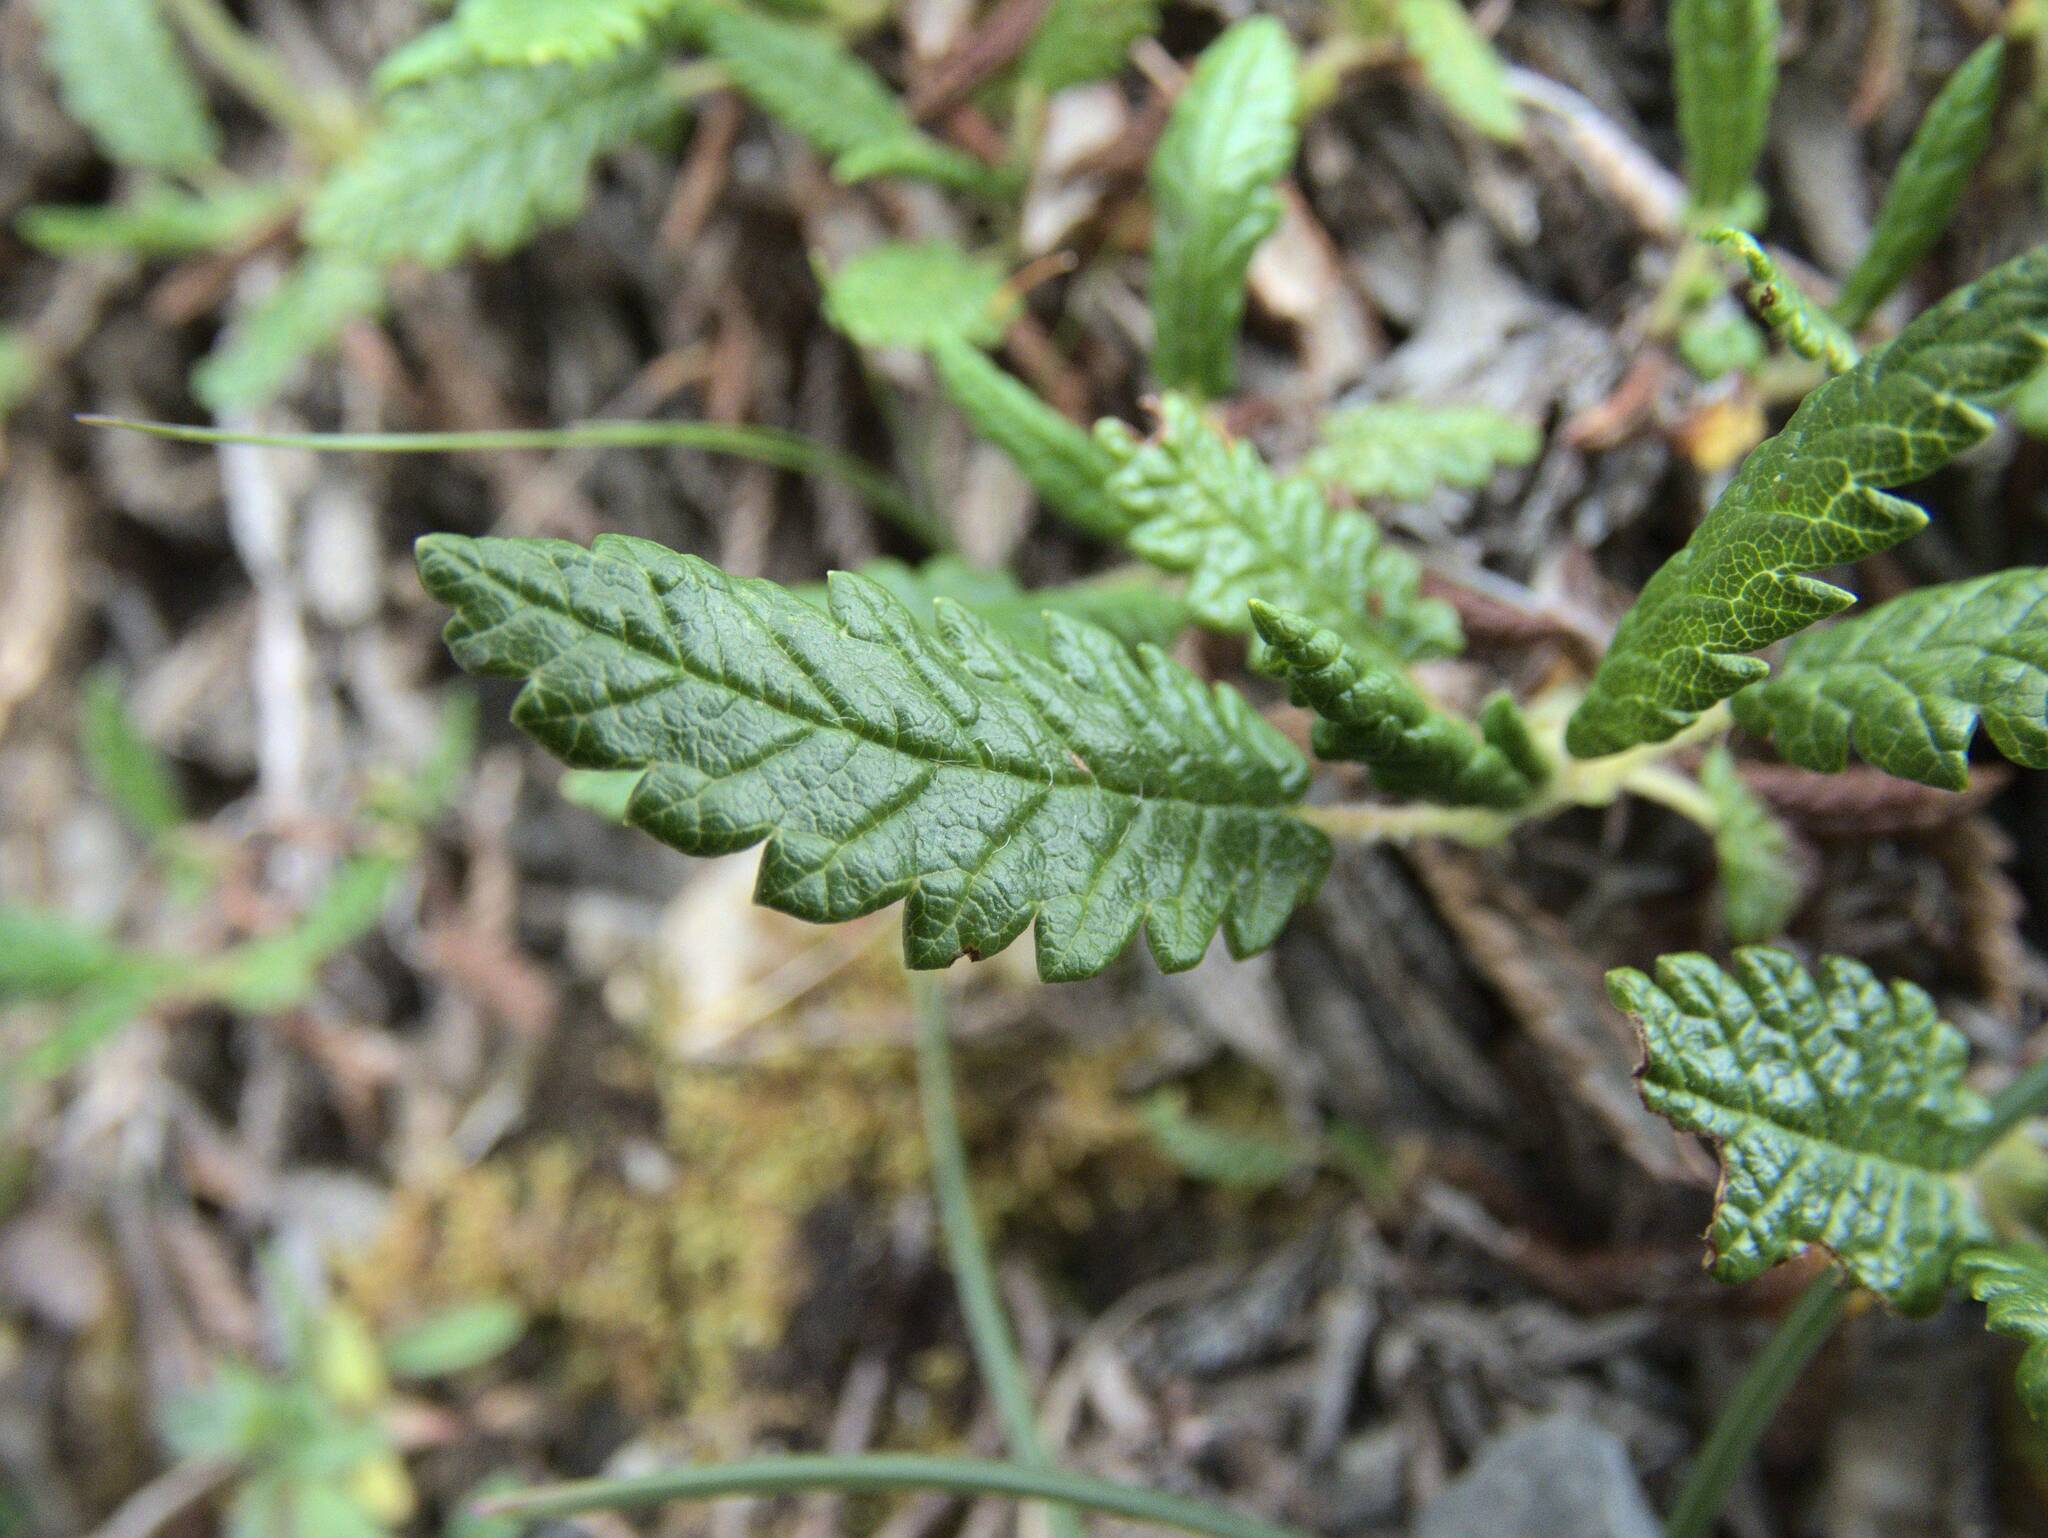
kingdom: Plantae
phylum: Tracheophyta
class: Magnoliopsida
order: Rosales
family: Rosaceae
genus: Dryas
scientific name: Dryas octopetala
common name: Eight-petal mountain-avens
